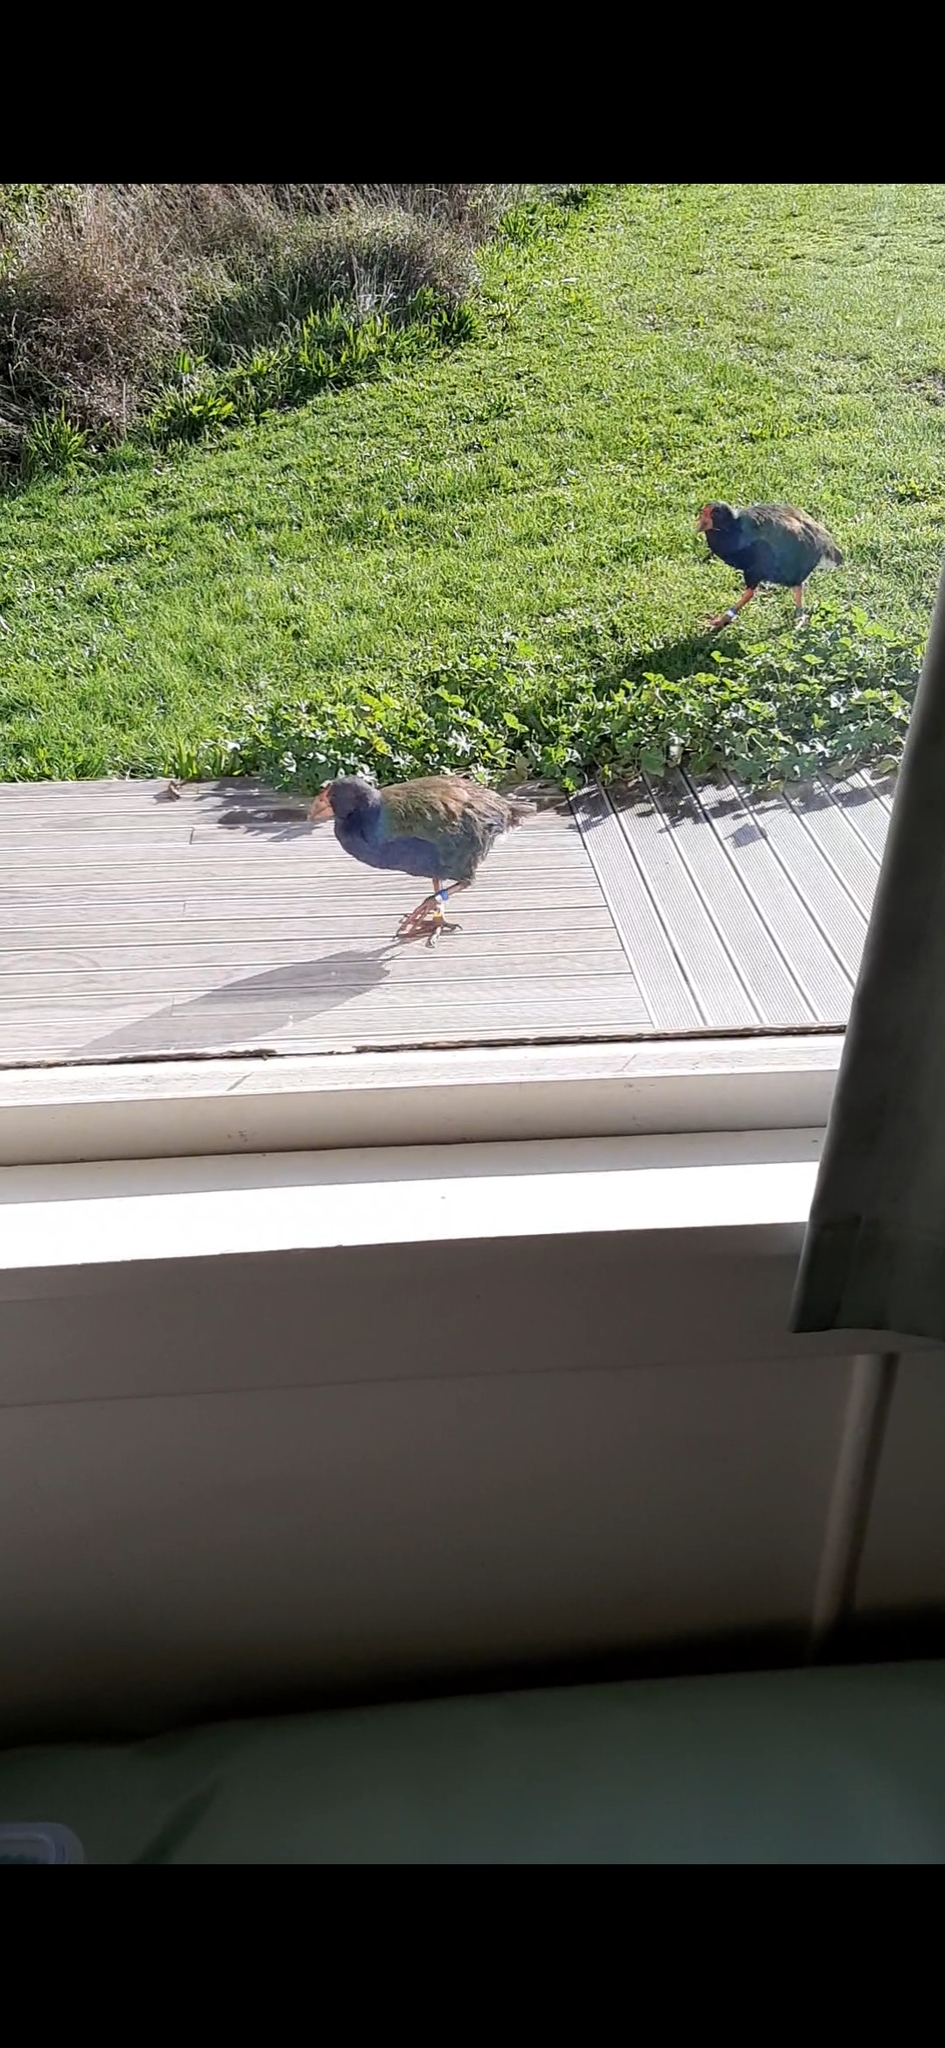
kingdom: Animalia
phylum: Chordata
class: Aves
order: Gruiformes
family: Rallidae
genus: Porphyrio
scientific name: Porphyrio hochstetteri
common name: South island takahe
